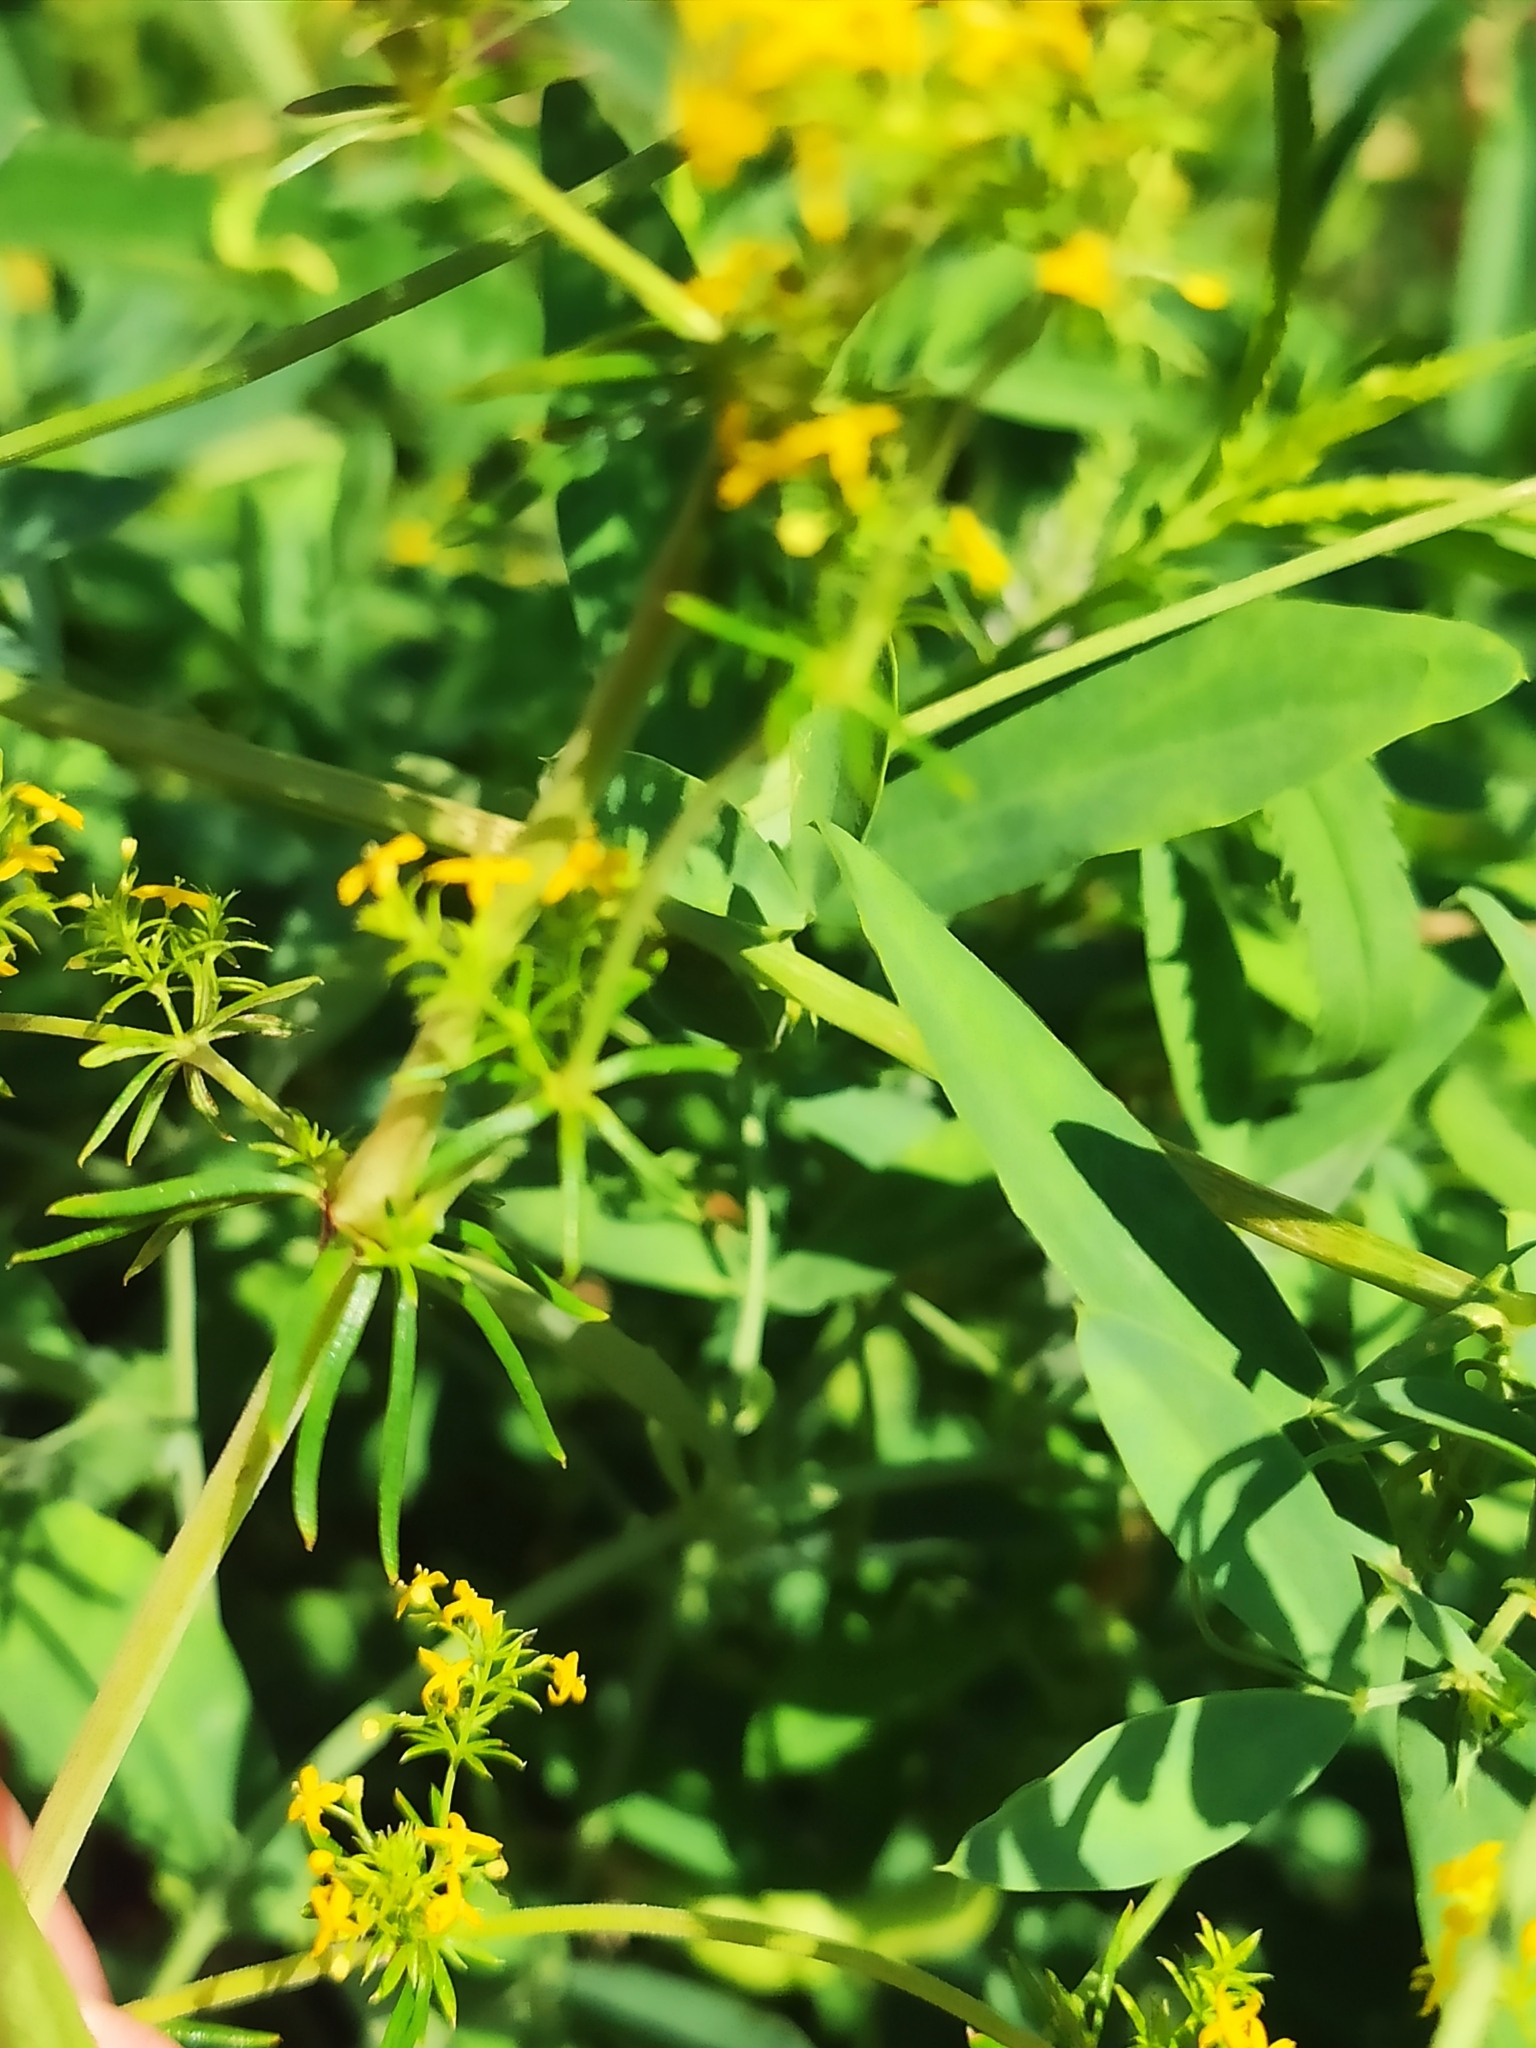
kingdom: Plantae
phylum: Tracheophyta
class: Magnoliopsida
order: Gentianales
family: Rubiaceae
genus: Galium
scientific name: Galium verum
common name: Lady's bedstraw
